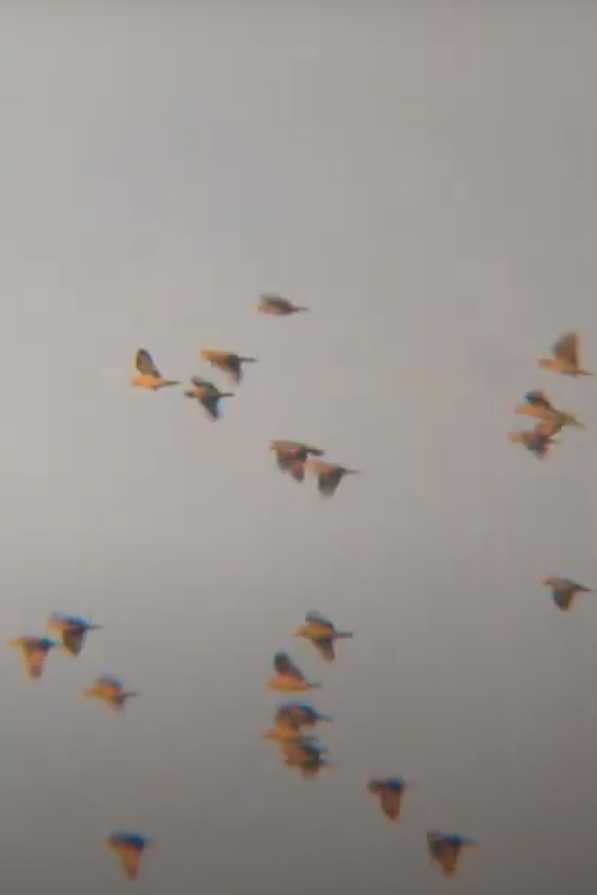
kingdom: Animalia
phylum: Chordata
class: Aves
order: Psittaciformes
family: Psittacidae
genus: Amazona
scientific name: Amazona
